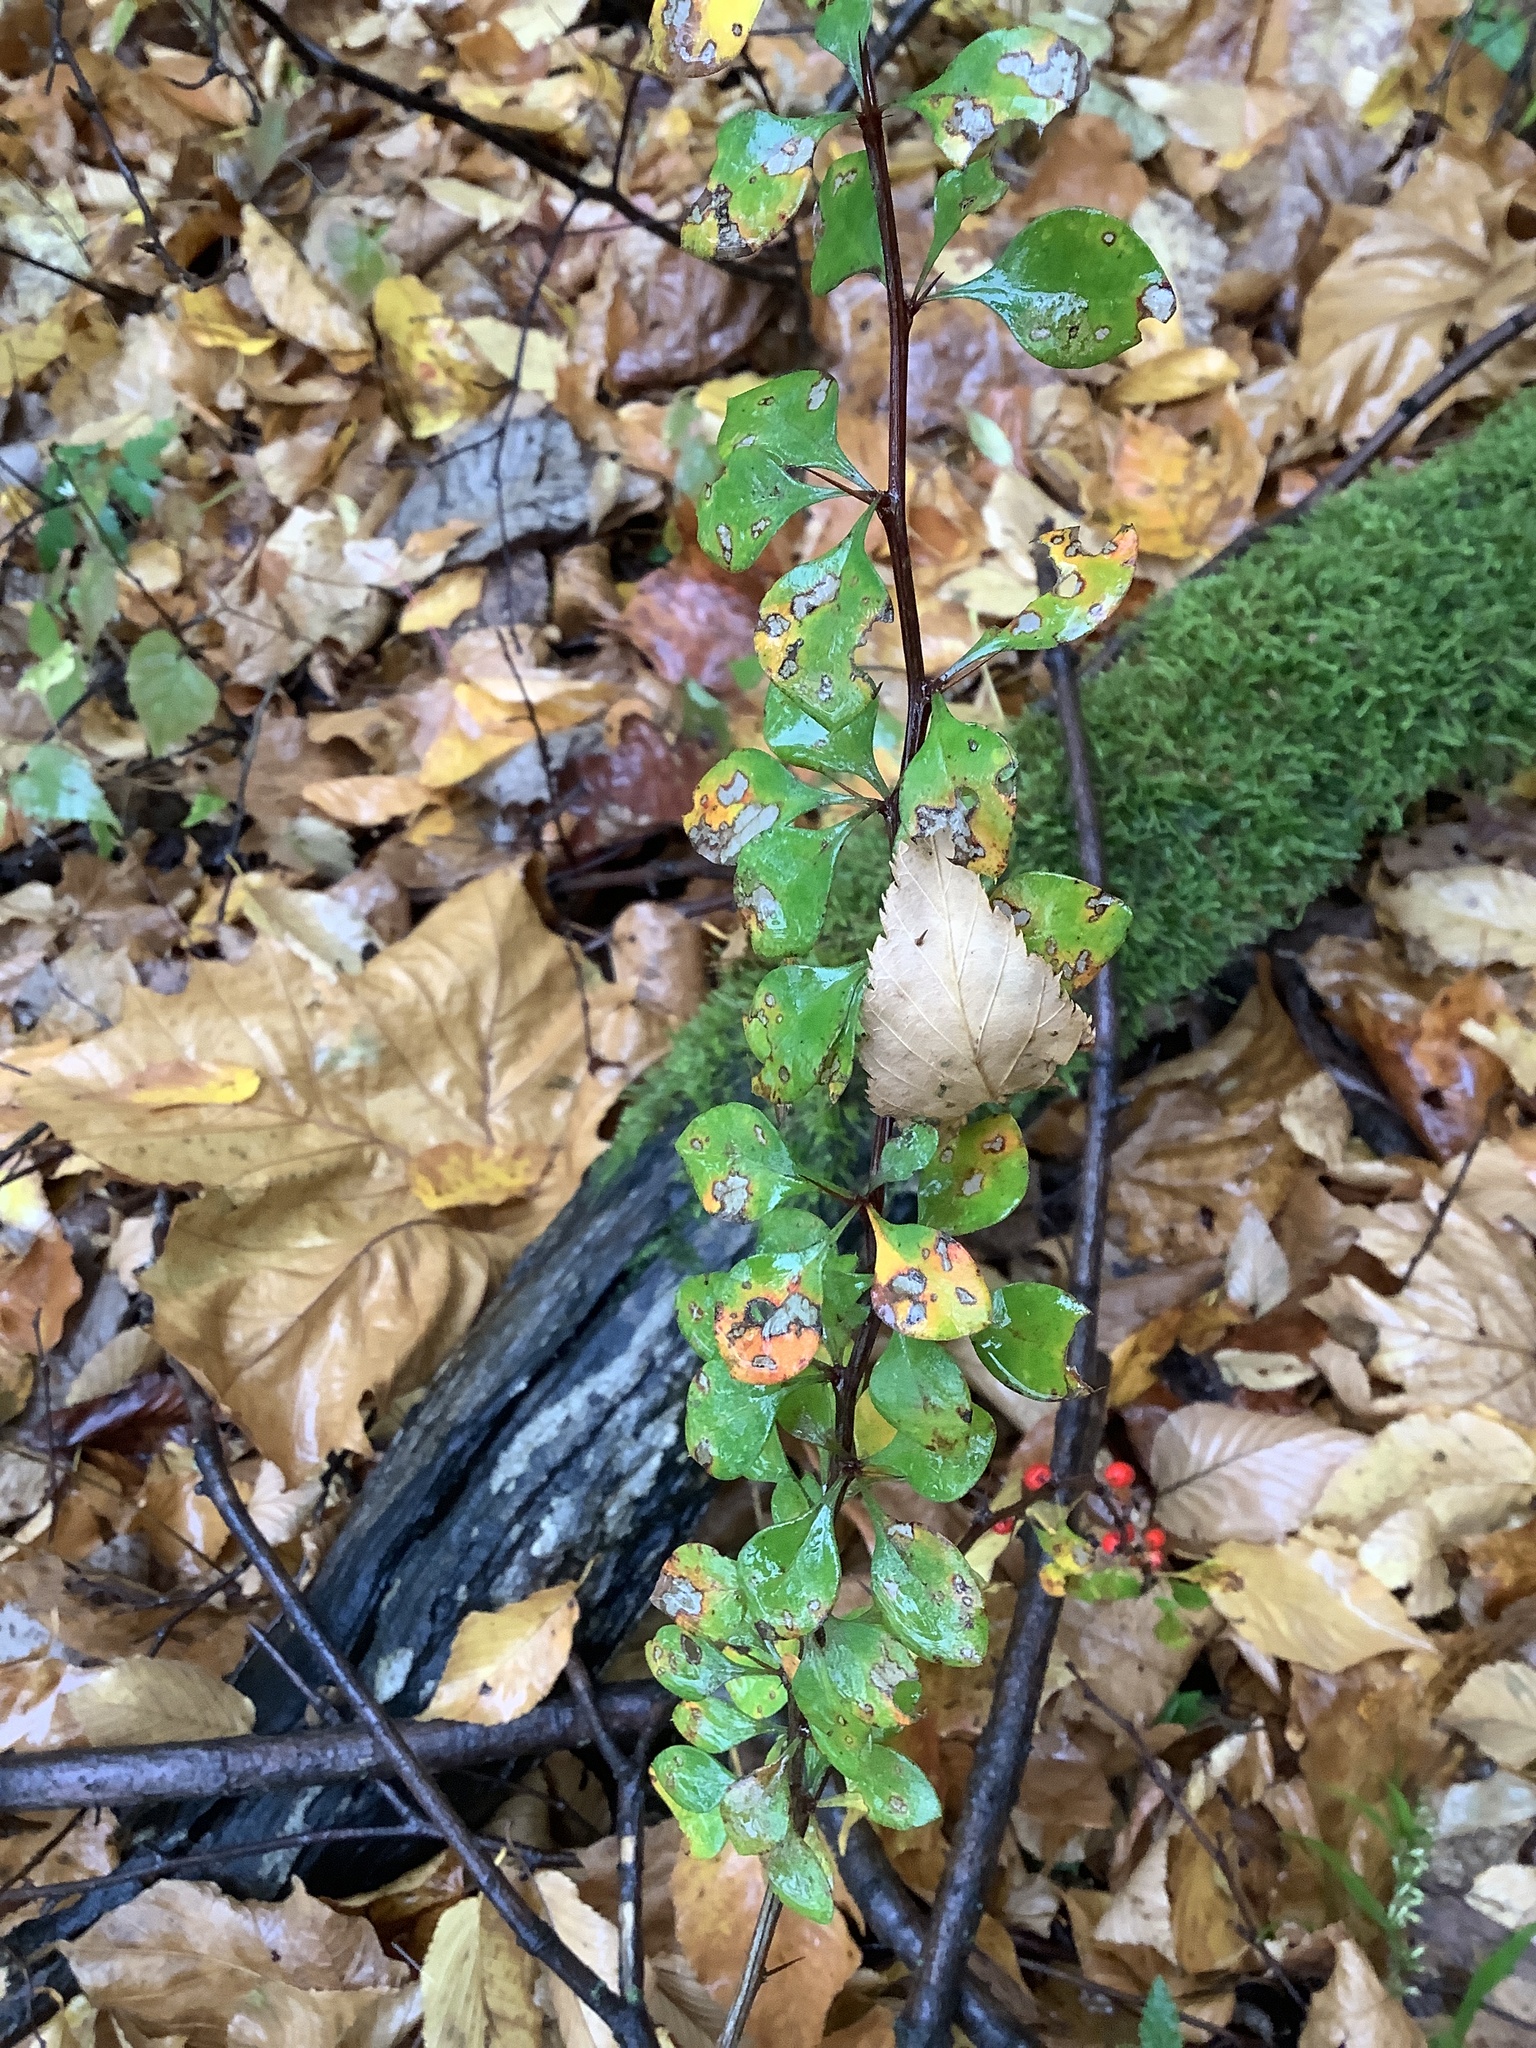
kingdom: Plantae
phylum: Tracheophyta
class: Magnoliopsida
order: Ranunculales
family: Berberidaceae
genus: Berberis
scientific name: Berberis thunbergii
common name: Japanese barberry
